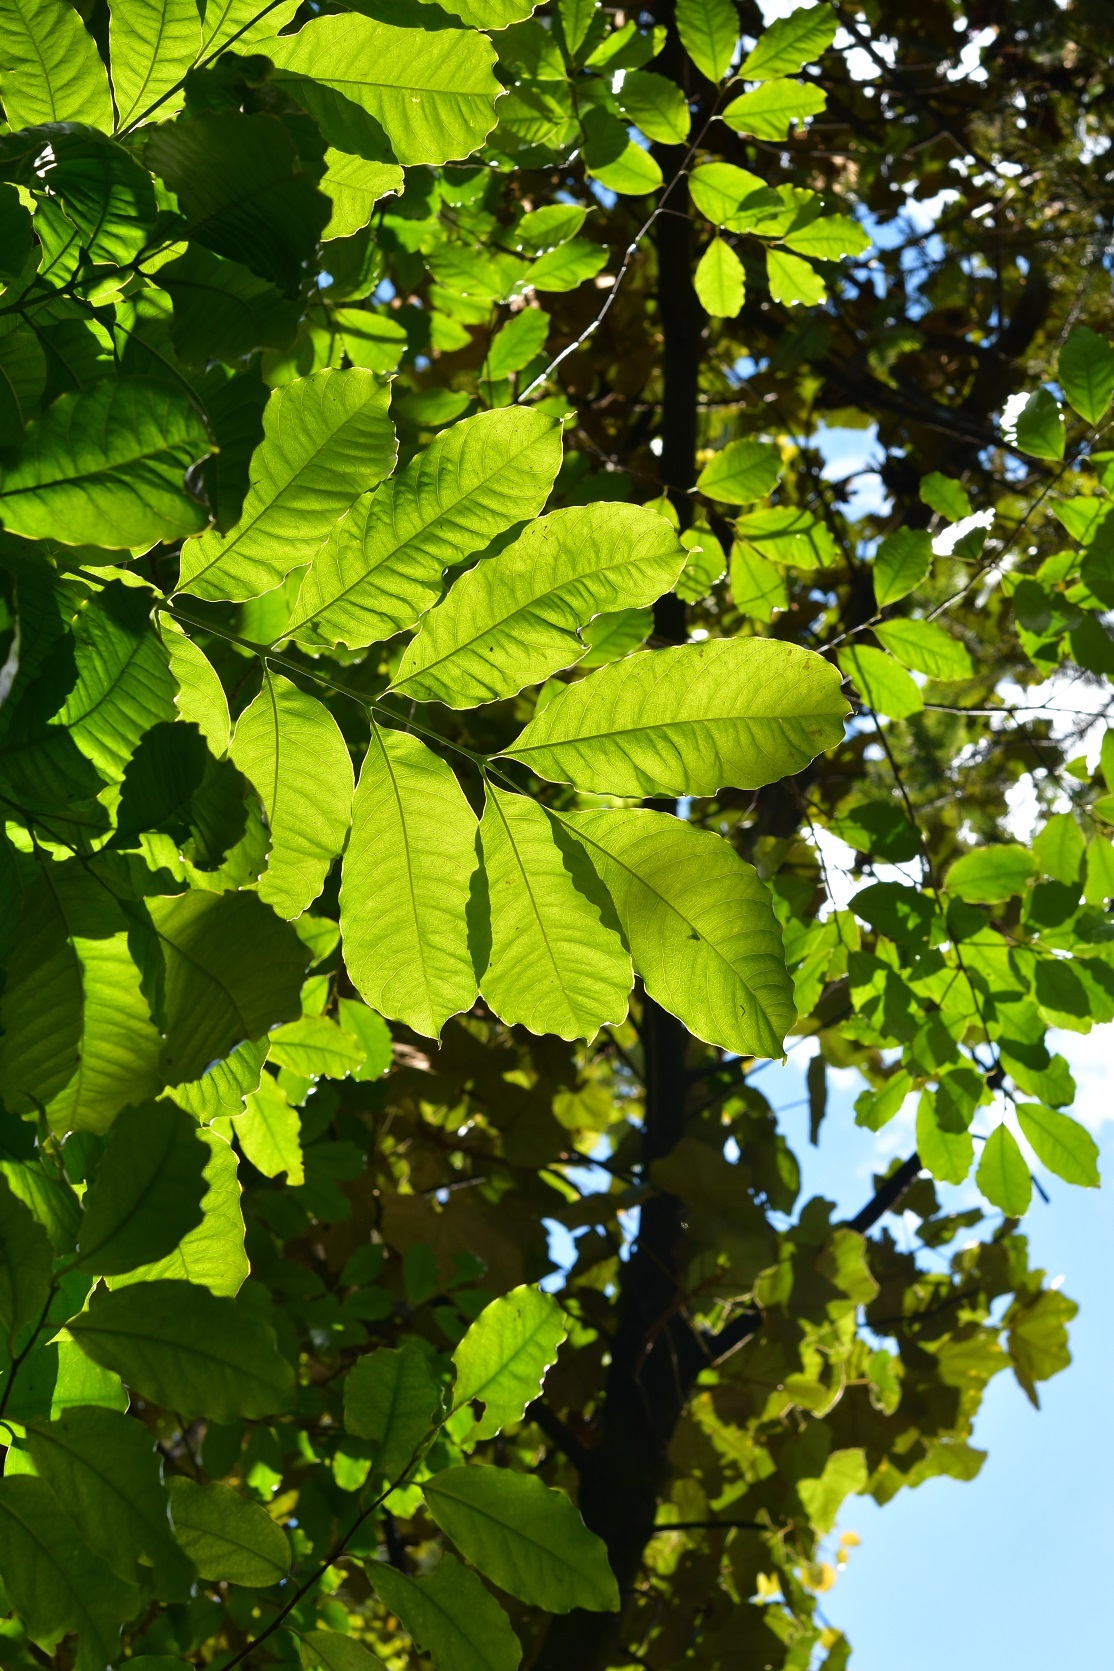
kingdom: Plantae
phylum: Tracheophyta
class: Magnoliopsida
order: Sapindales
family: Anacardiaceae
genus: Tapirira
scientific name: Tapirira mexicana
